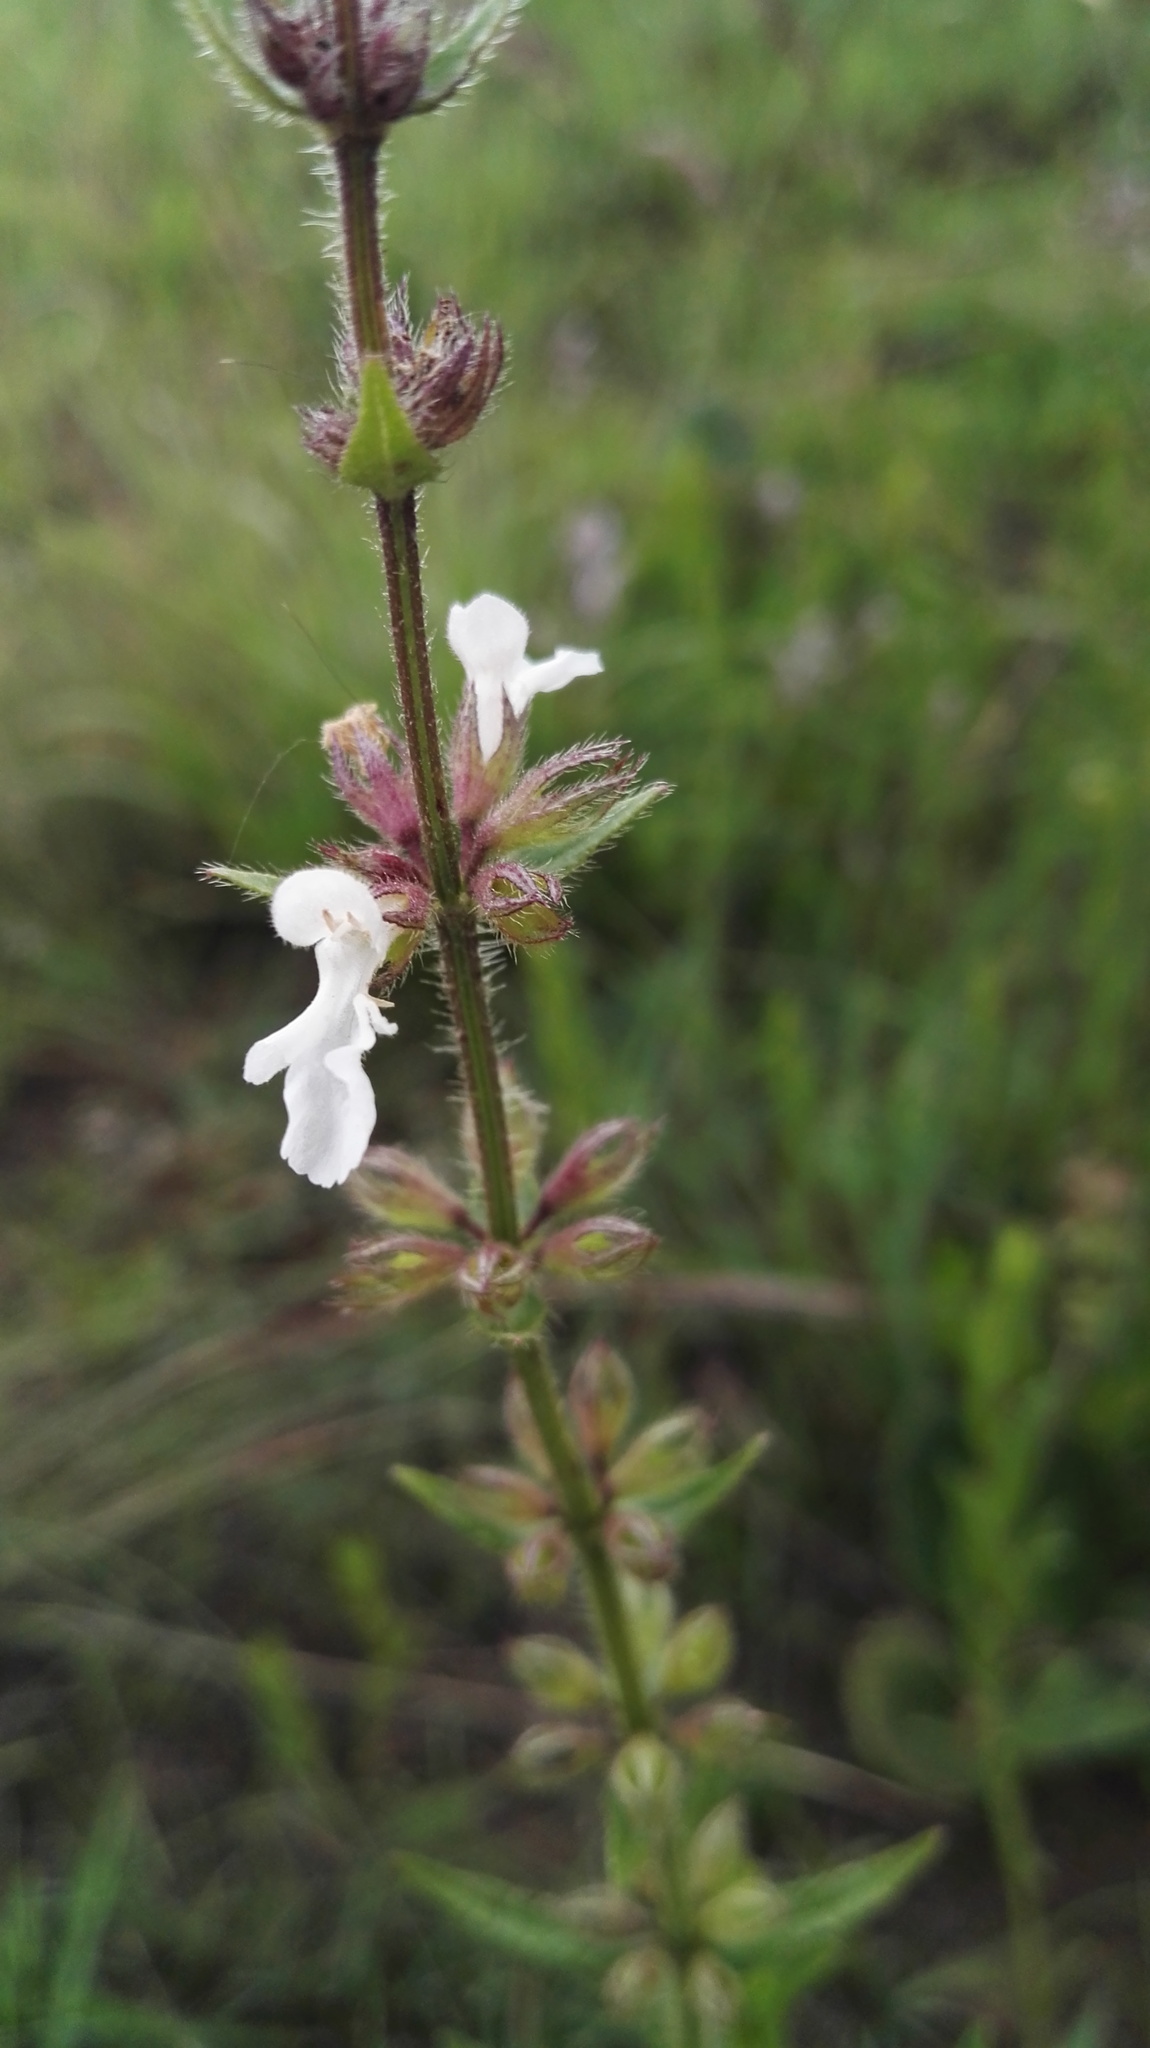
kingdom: Plantae
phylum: Tracheophyta
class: Magnoliopsida
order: Lamiales
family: Lamiaceae
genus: Stachys
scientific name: Stachys nigricans
